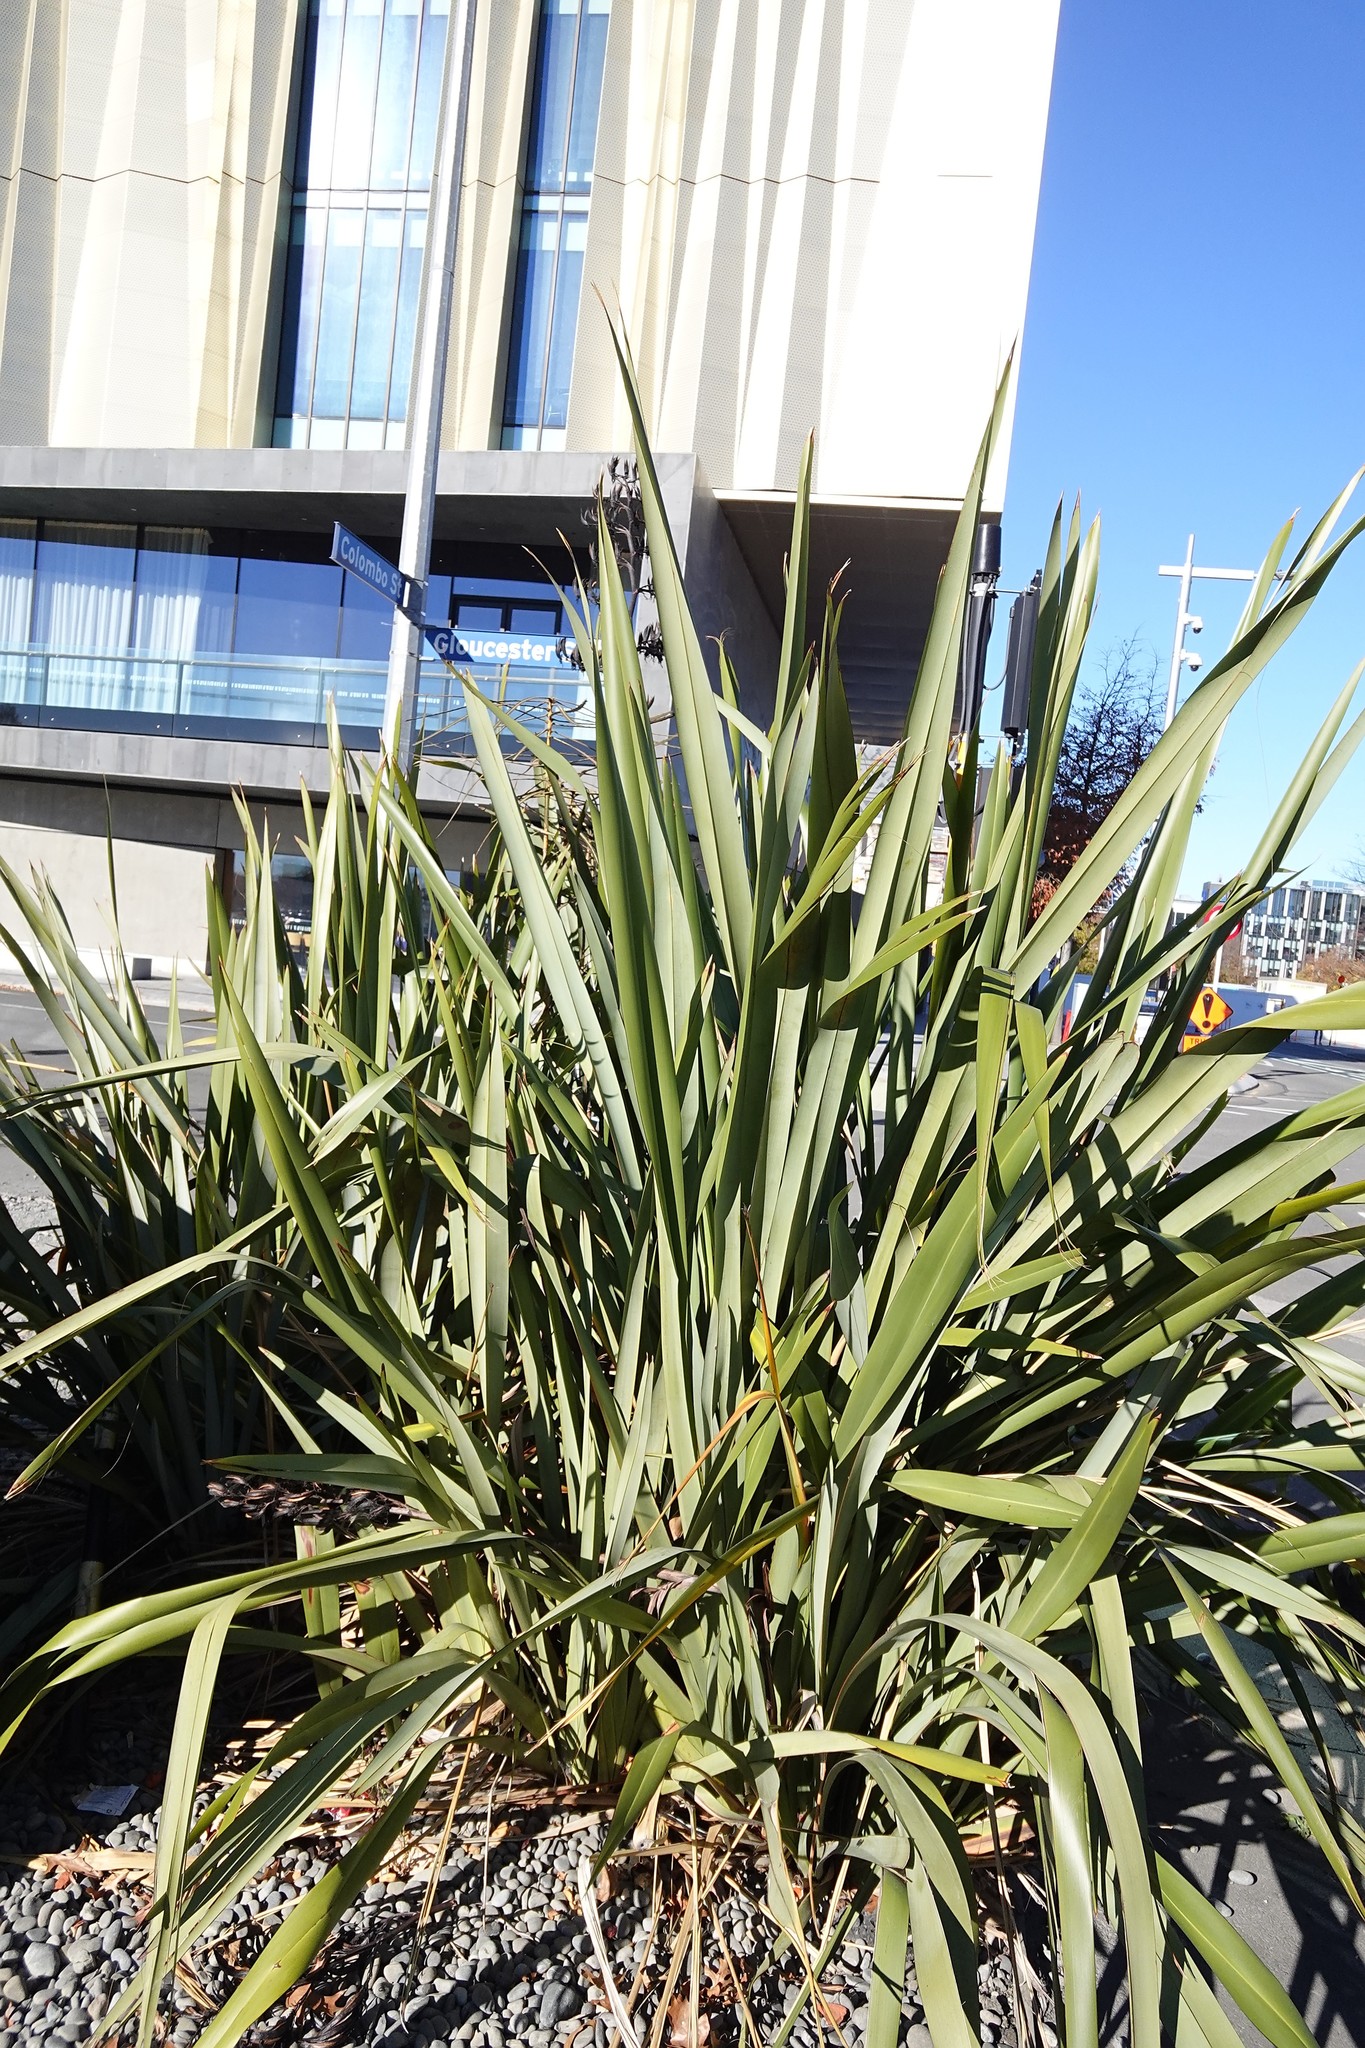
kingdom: Plantae
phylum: Tracheophyta
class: Liliopsida
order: Asparagales
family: Asphodelaceae
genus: Phormium
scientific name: Phormium tenax
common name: New zealand flax
